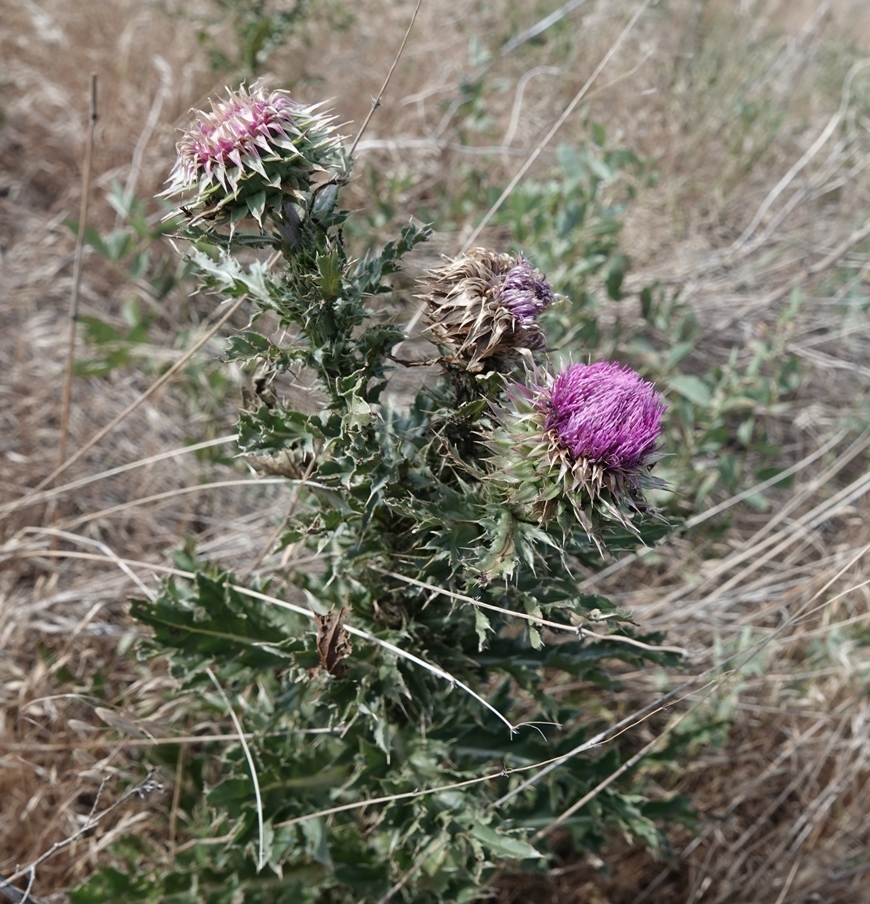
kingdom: Plantae
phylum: Tracheophyta
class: Magnoliopsida
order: Asterales
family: Asteraceae
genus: Carduus
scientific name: Carduus nutans
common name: Musk thistle
